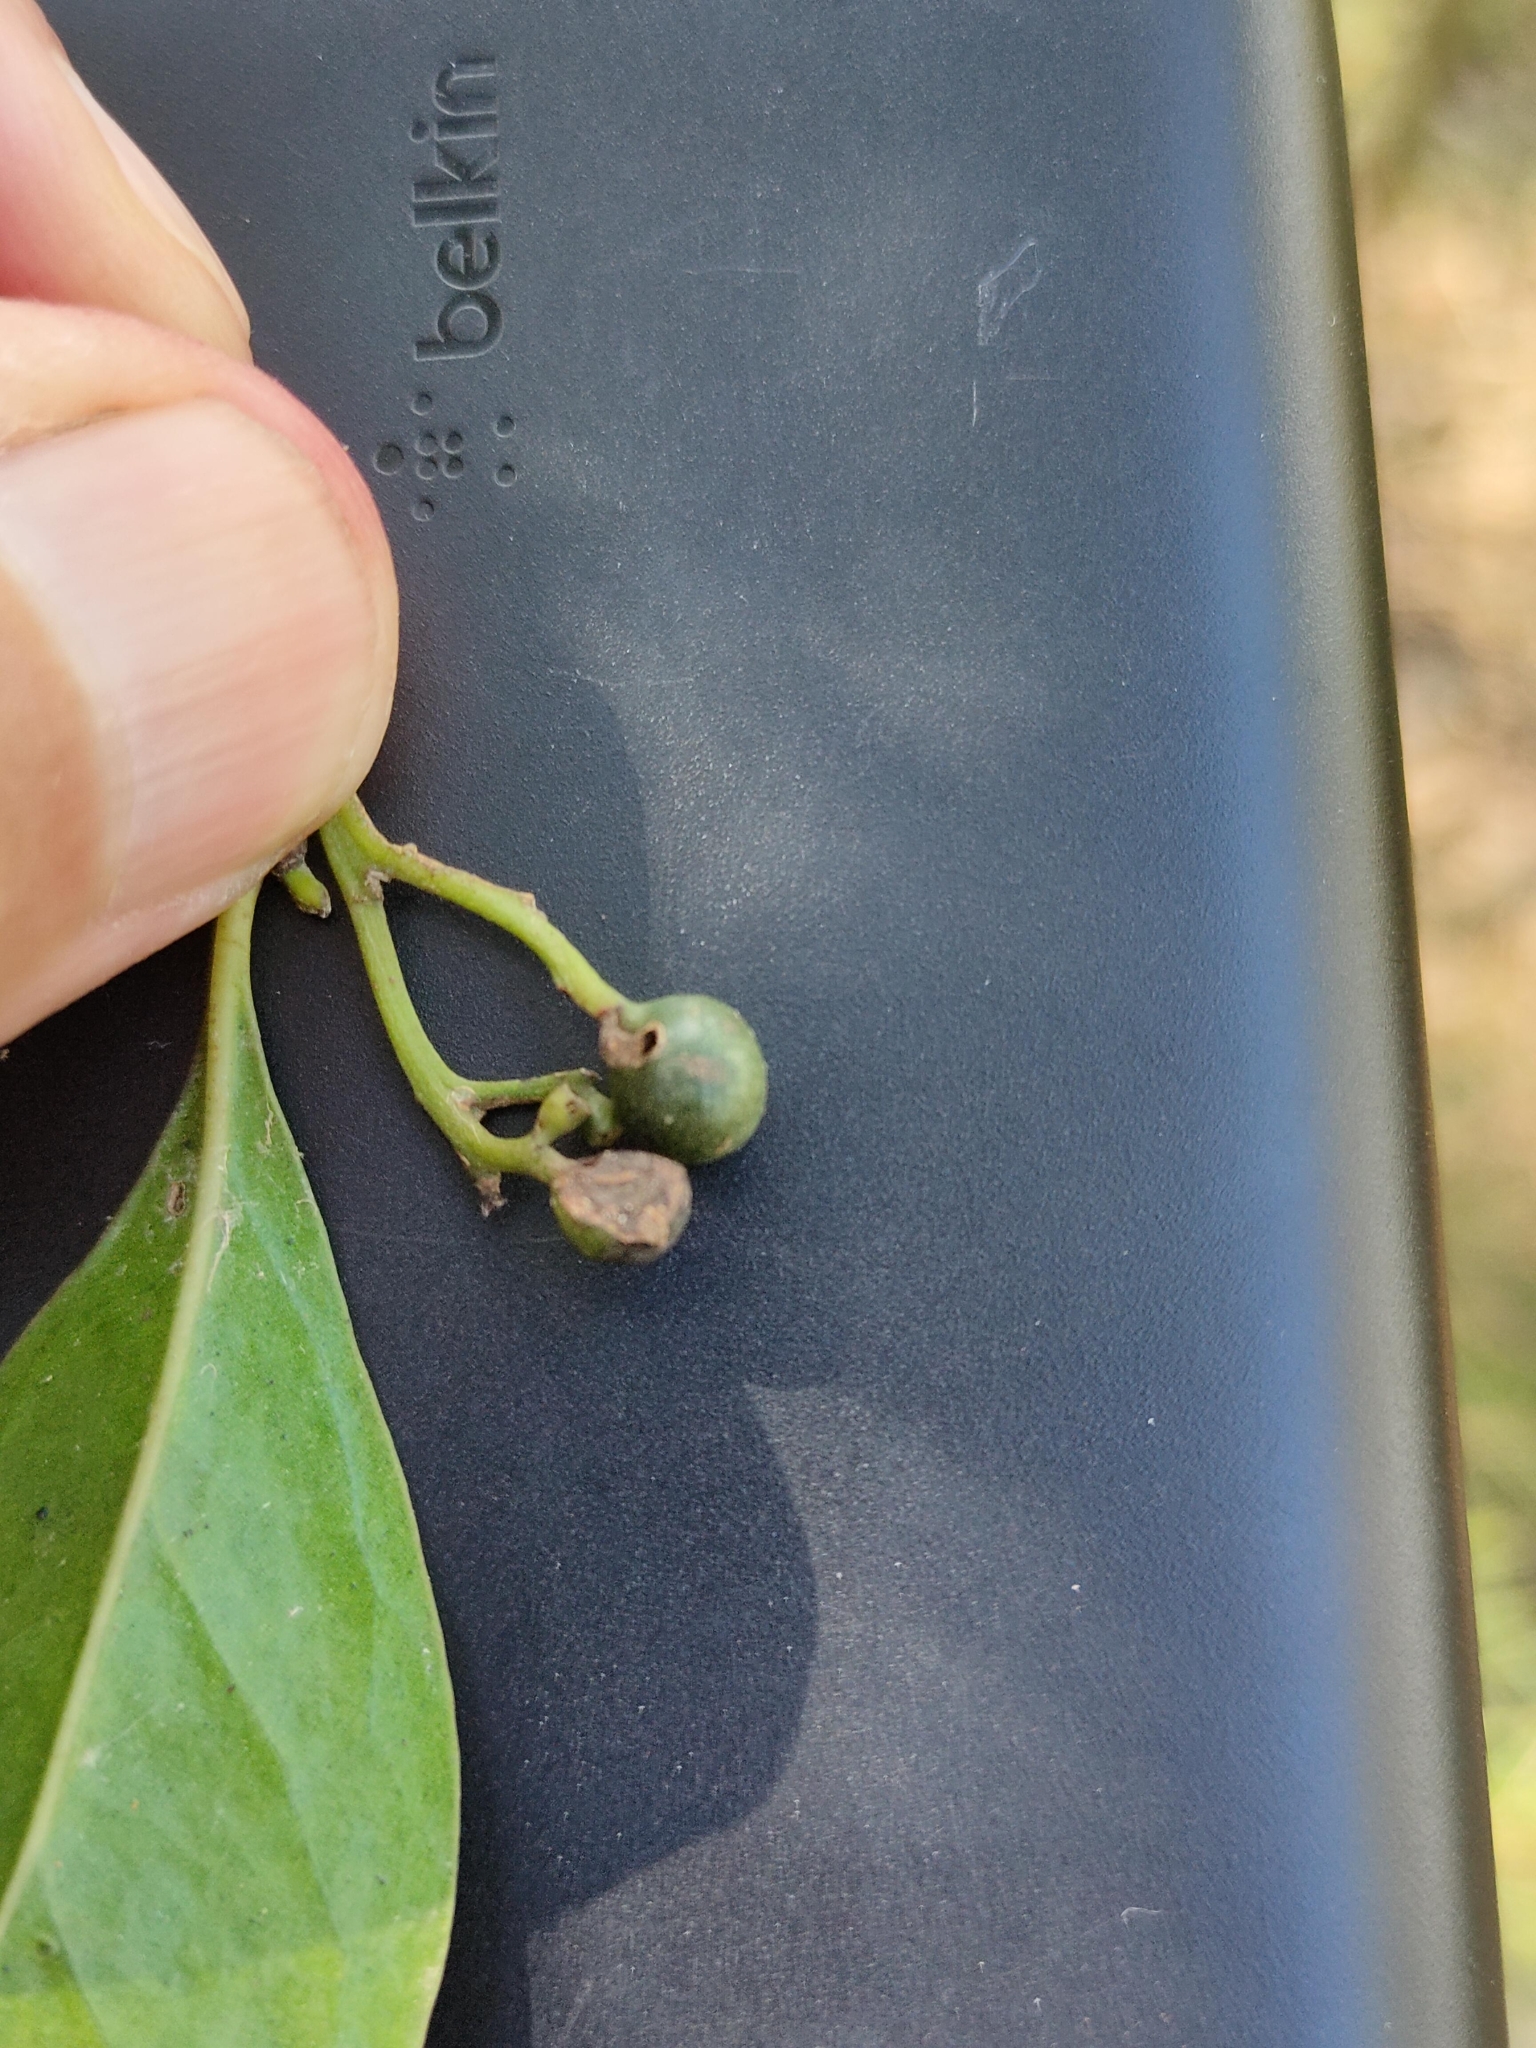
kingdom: Plantae
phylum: Tracheophyta
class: Magnoliopsida
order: Gentianales
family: Rubiaceae
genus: Psydrax
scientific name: Psydrax odoratus
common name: Alahe'e
